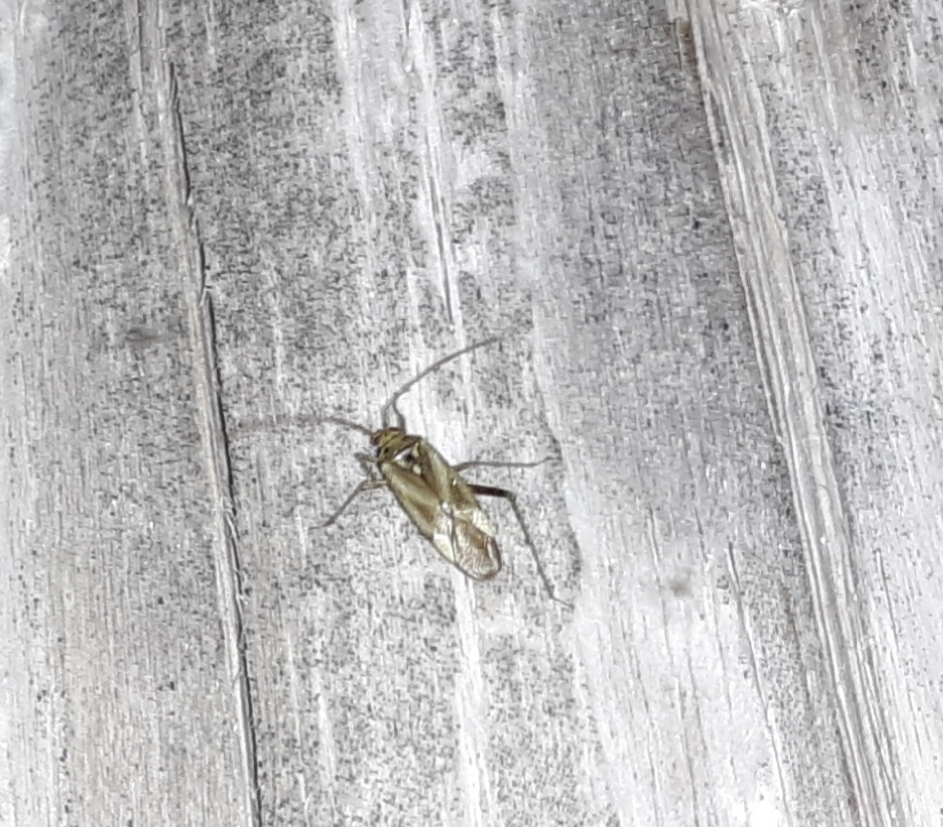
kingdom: Animalia
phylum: Arthropoda
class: Insecta
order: Hemiptera
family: Miridae
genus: Adelphocoris
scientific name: Adelphocoris lineolatus
